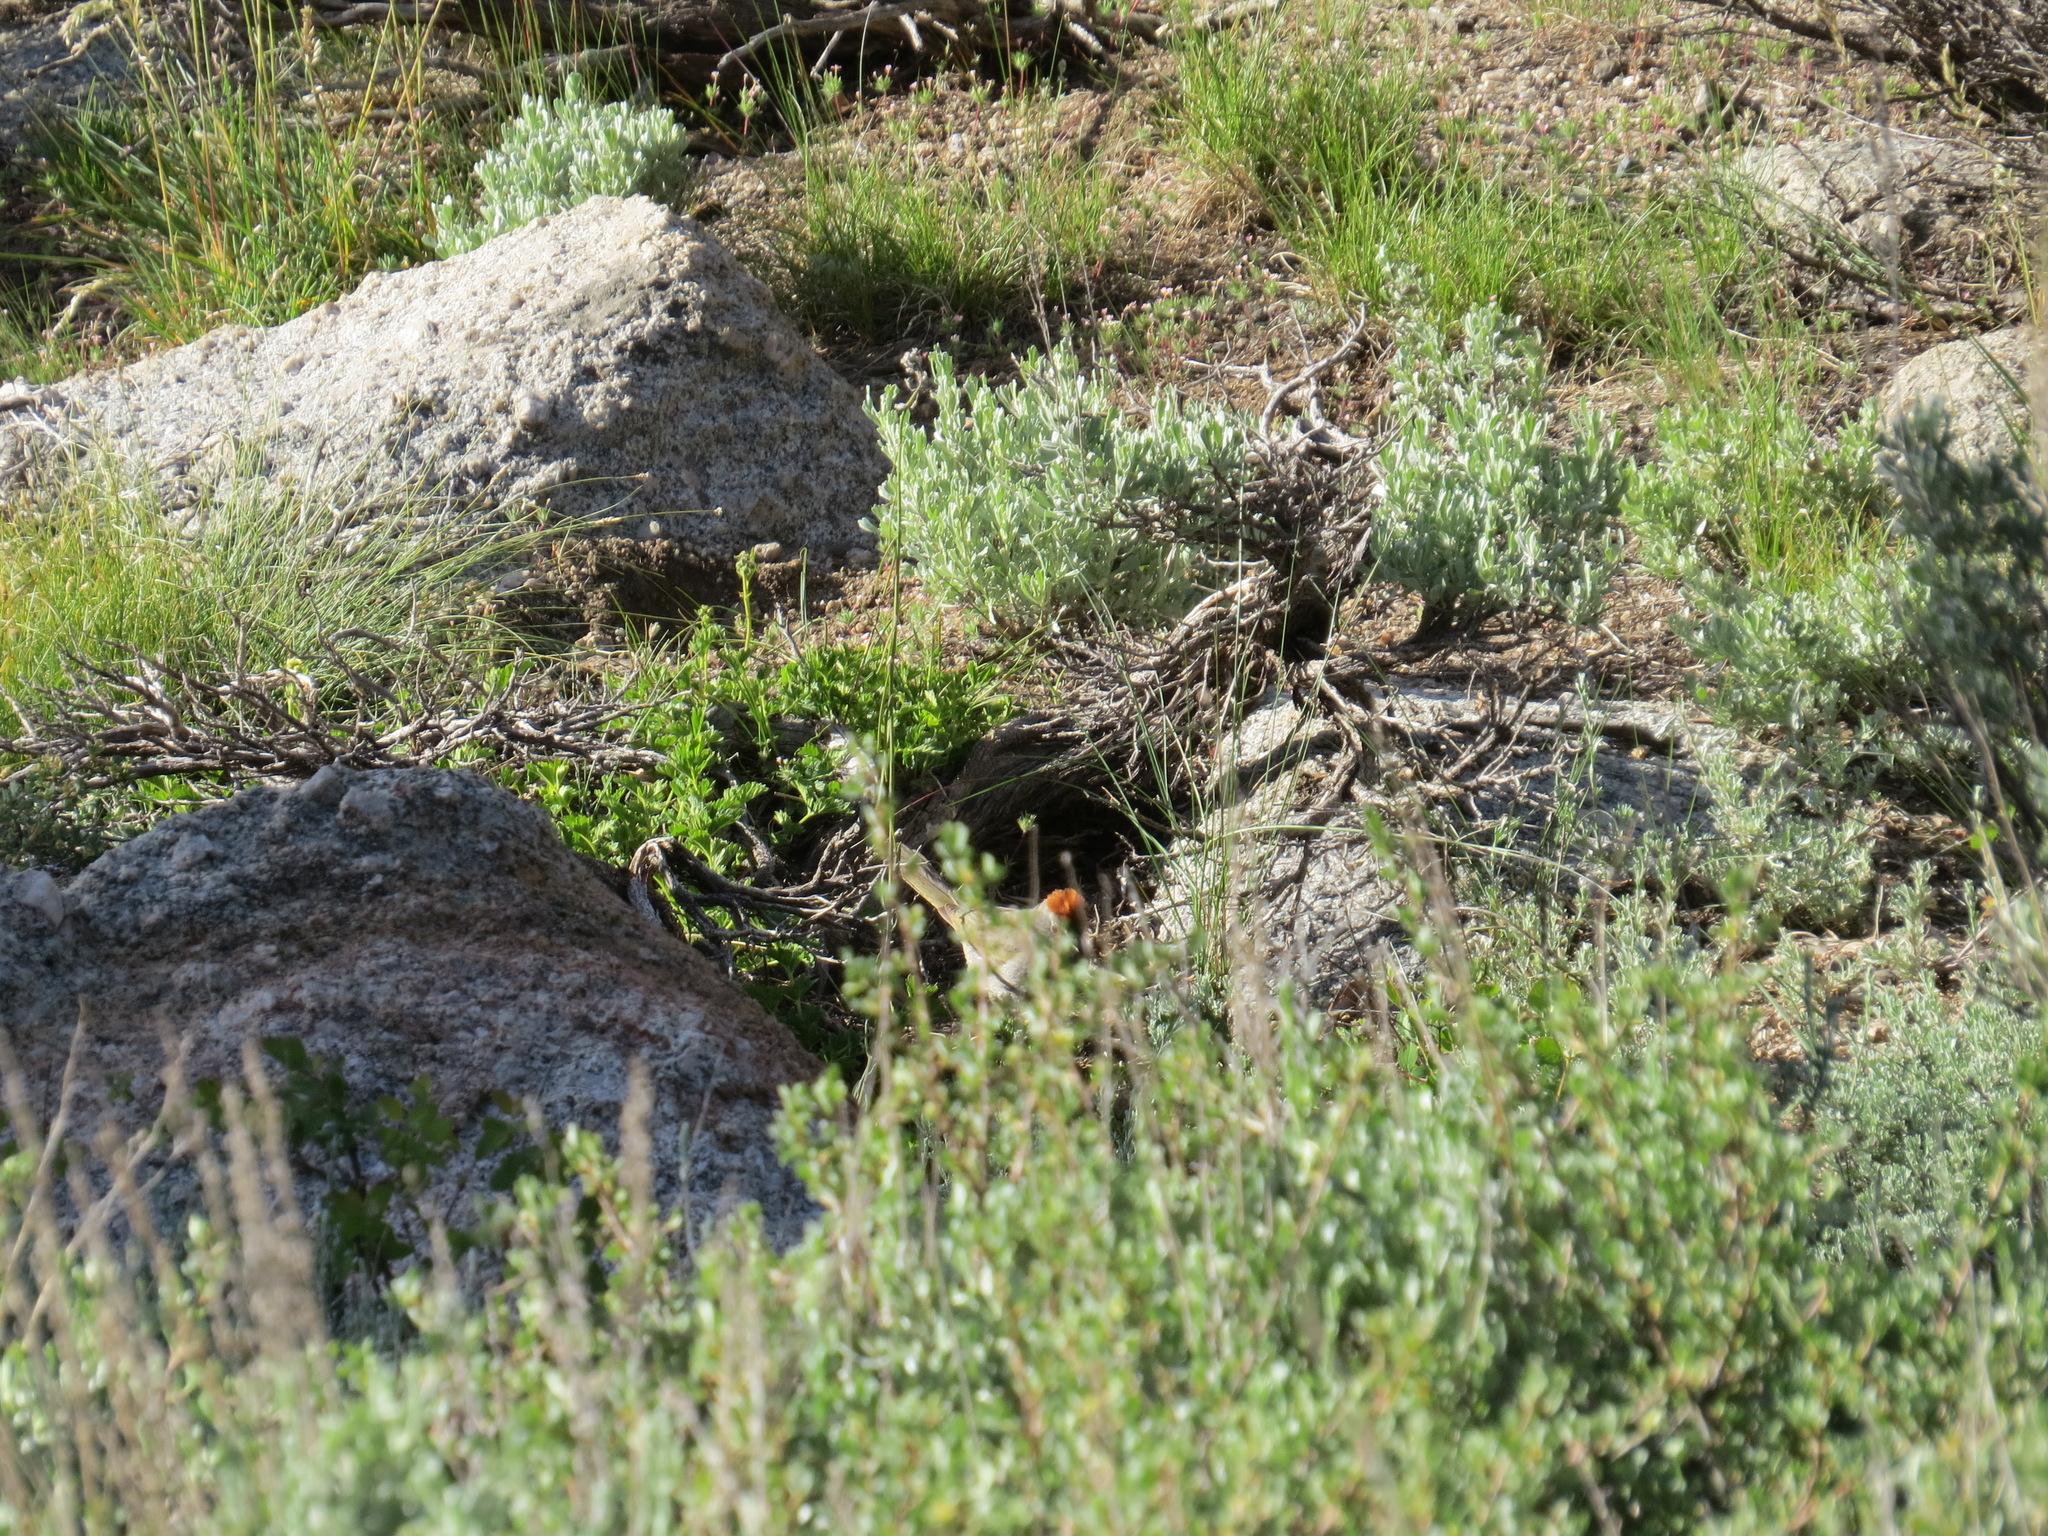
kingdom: Animalia
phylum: Chordata
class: Aves
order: Passeriformes
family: Passerellidae
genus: Pipilo
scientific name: Pipilo chlorurus
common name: Green-tailed towhee
